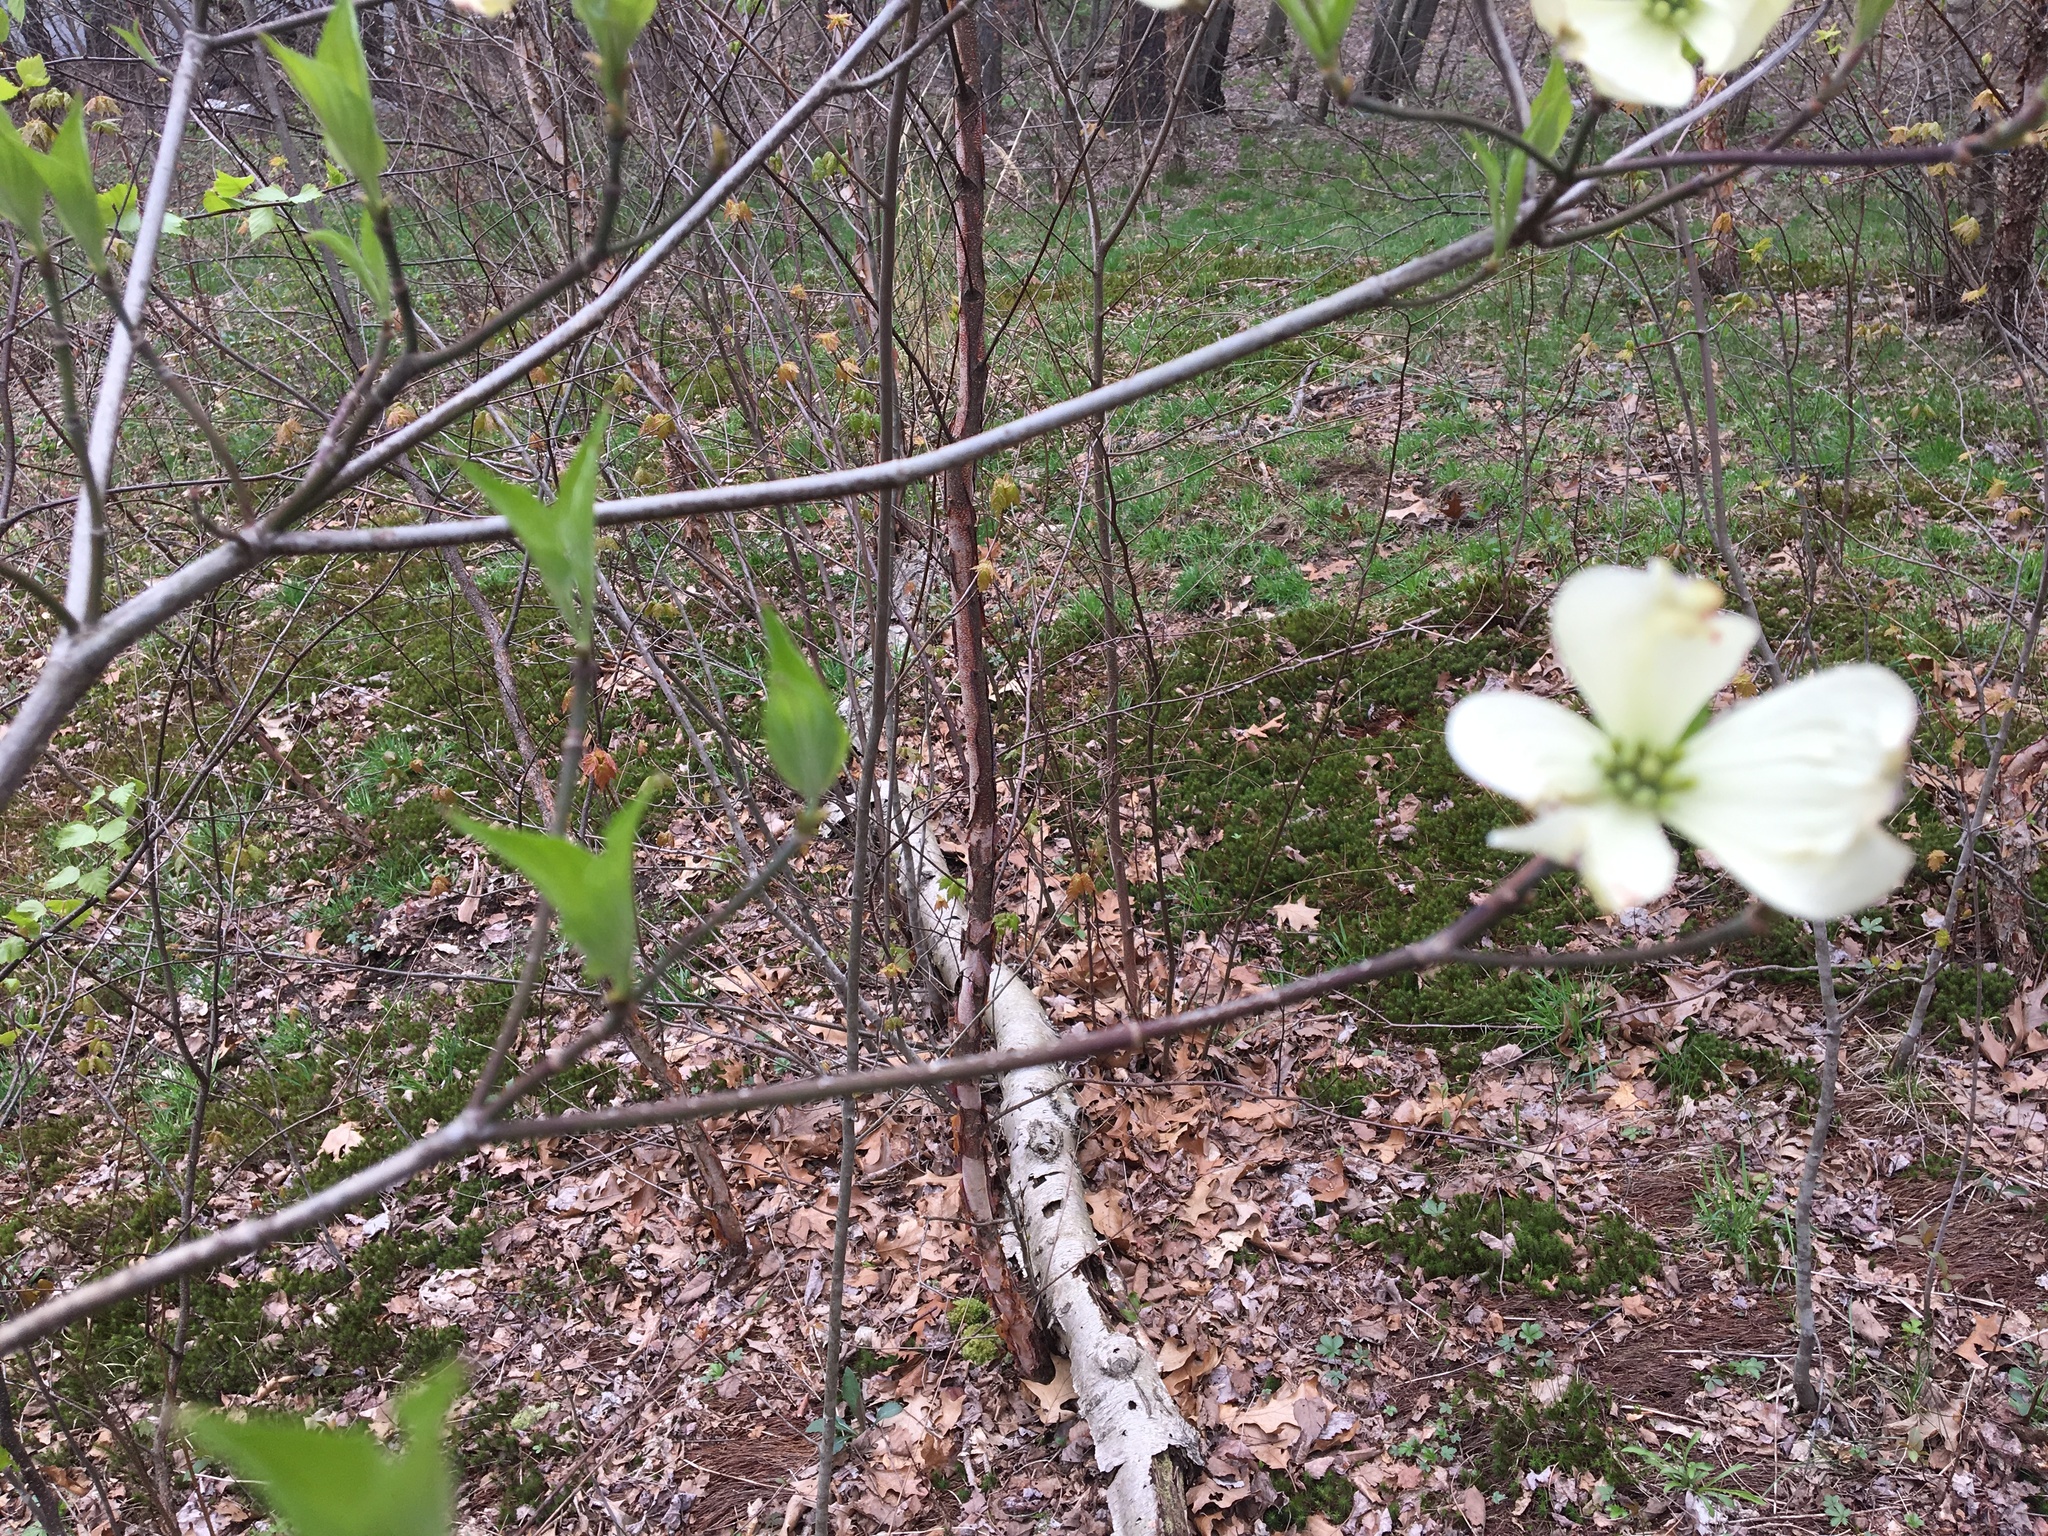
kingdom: Plantae
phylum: Tracheophyta
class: Magnoliopsida
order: Cornales
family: Cornaceae
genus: Cornus
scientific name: Cornus florida
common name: Flowering dogwood
